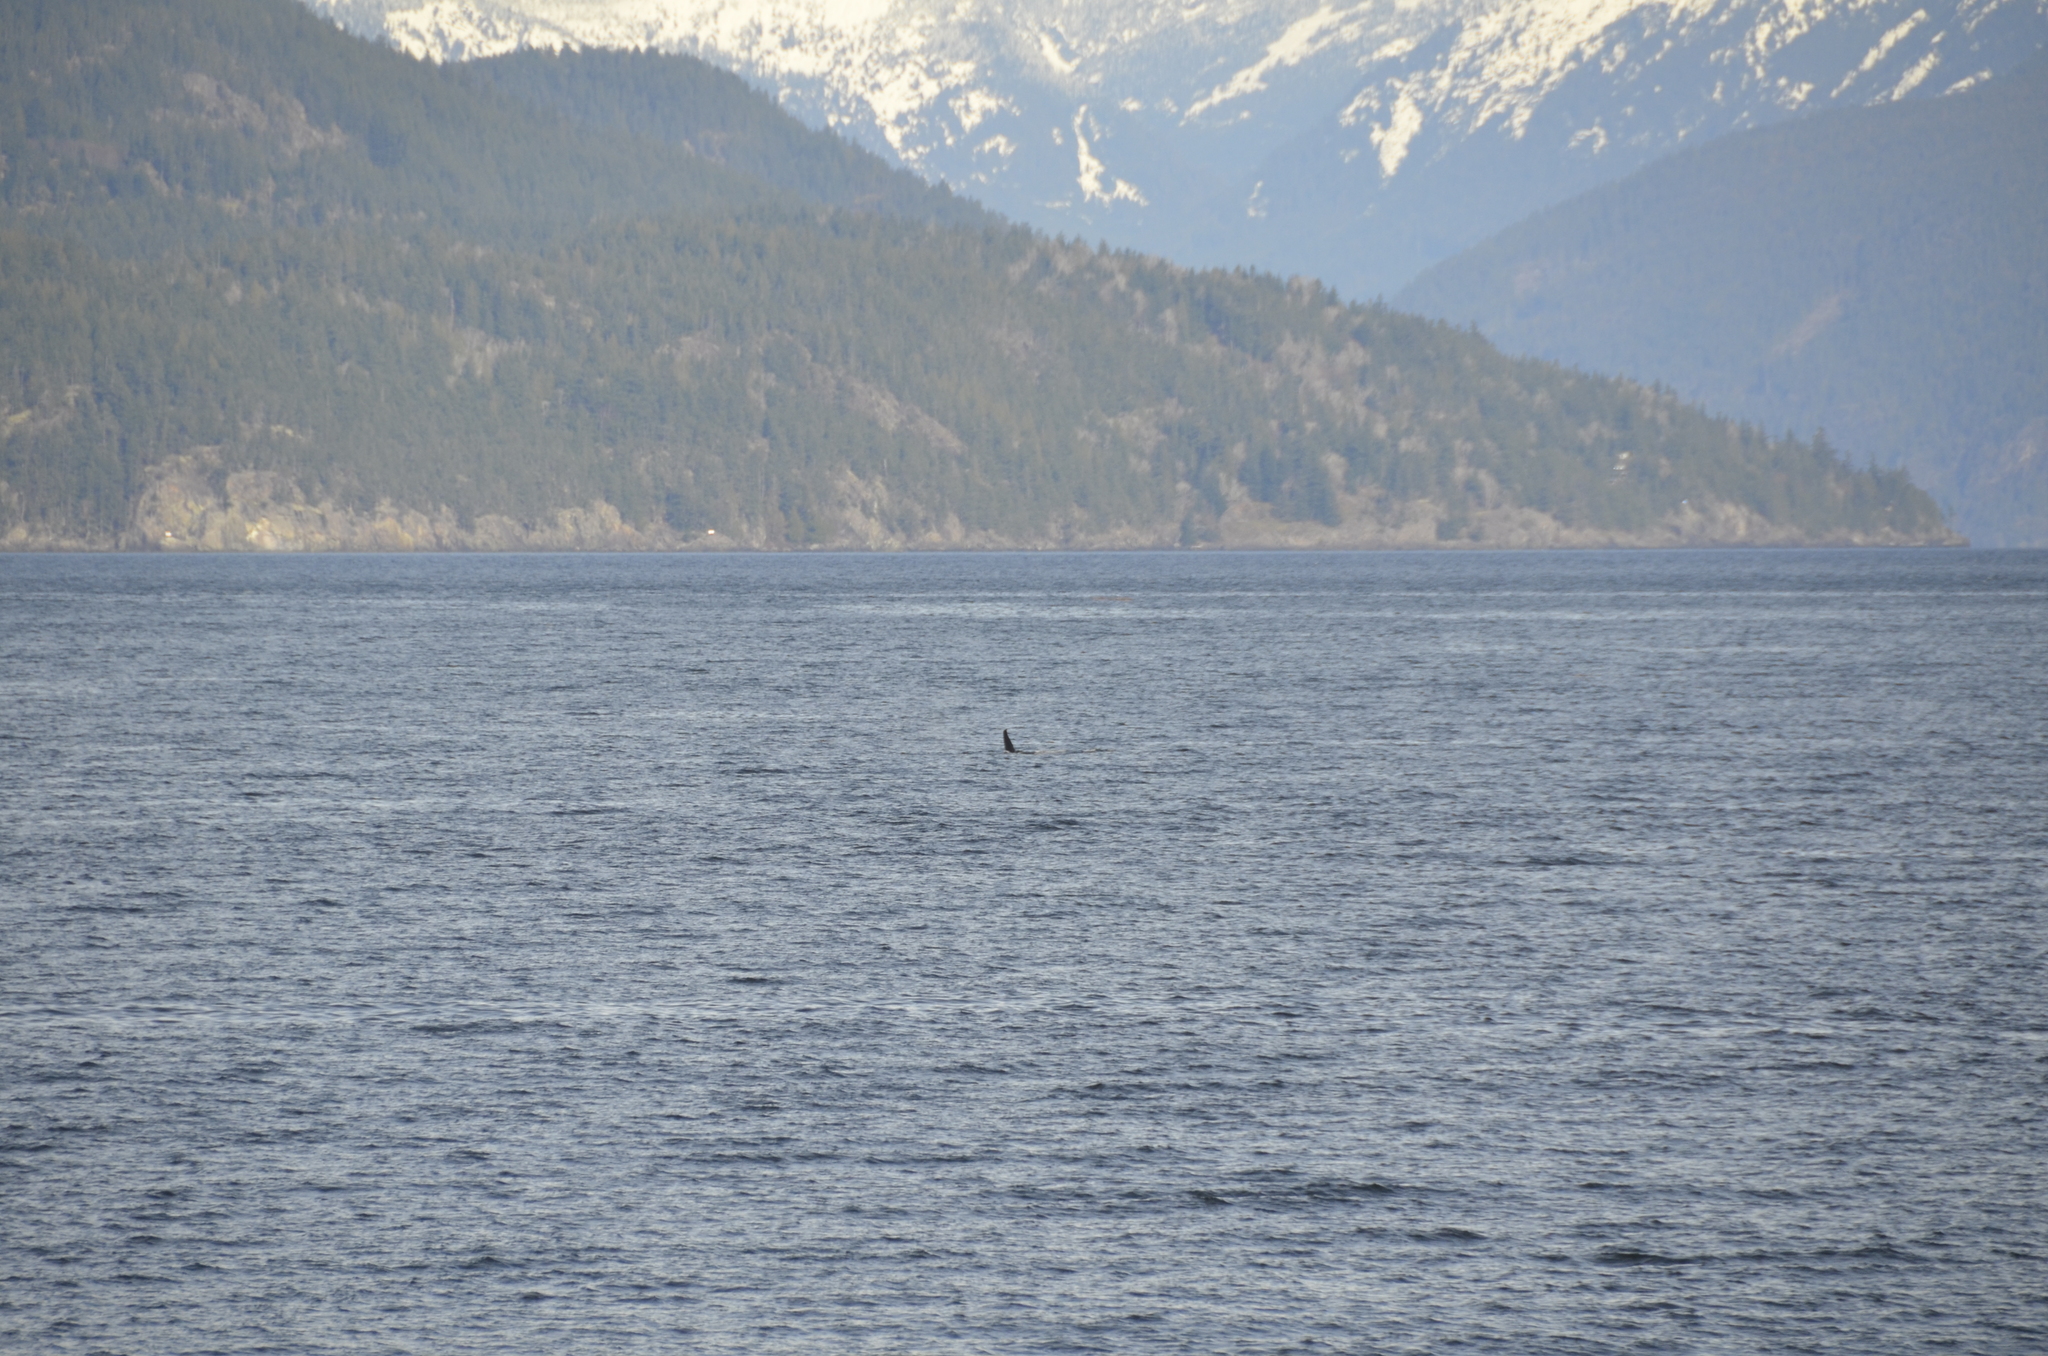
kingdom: Animalia
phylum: Chordata
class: Mammalia
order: Cetacea
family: Delphinidae
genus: Orcinus
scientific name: Orcinus orca
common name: Killer whale
